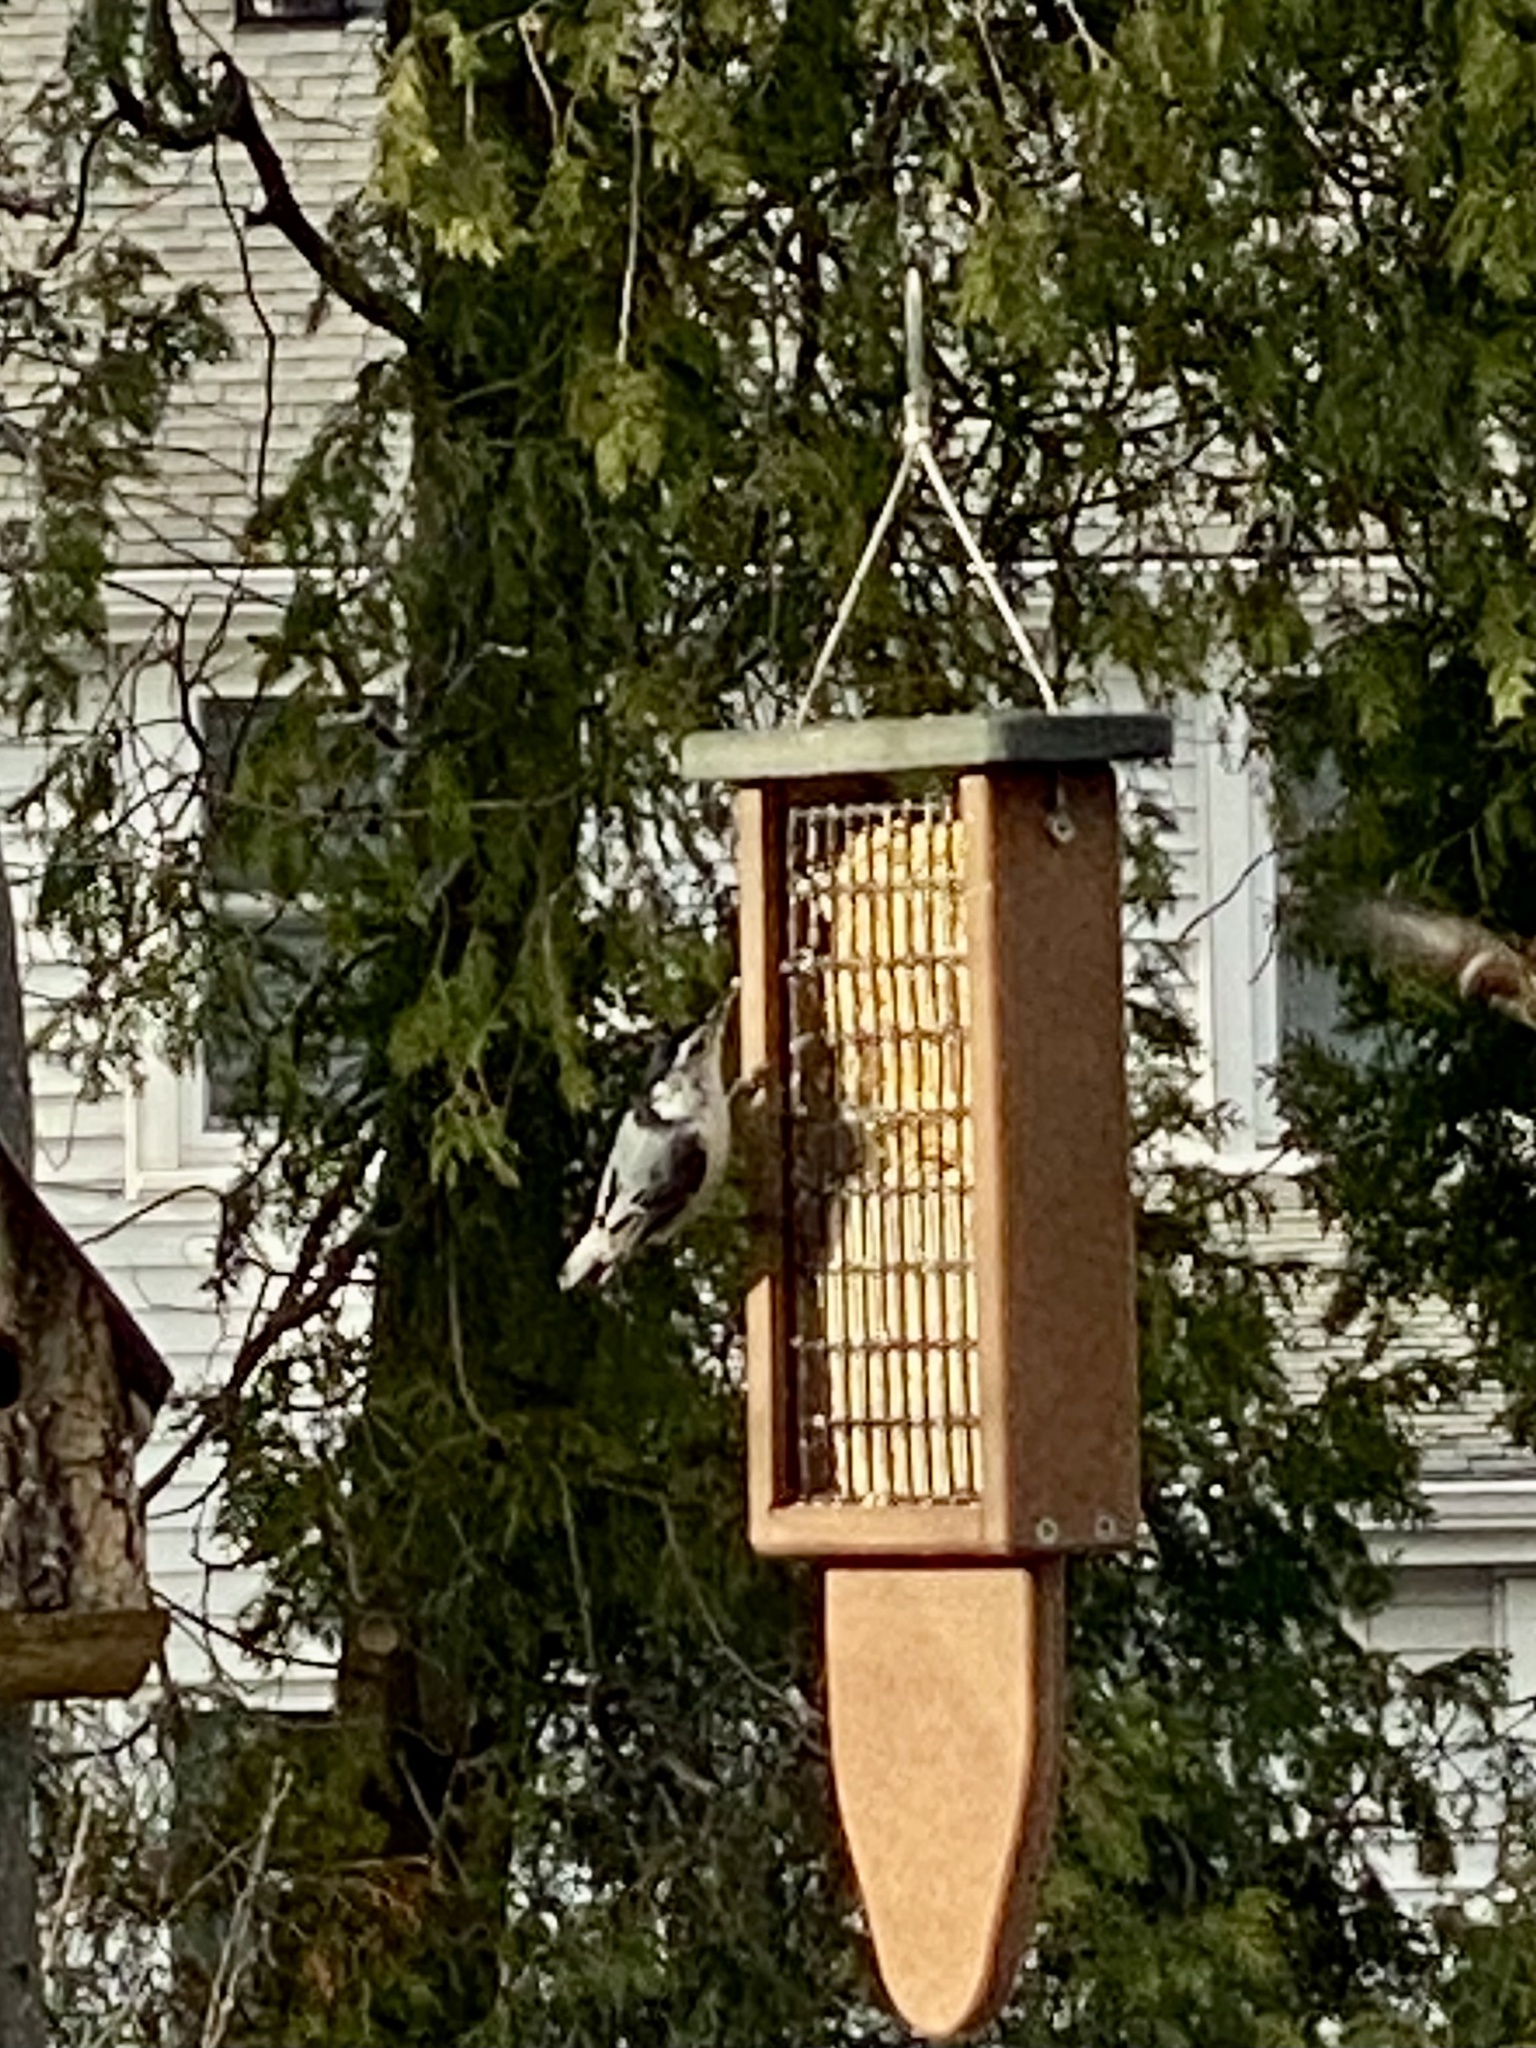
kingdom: Animalia
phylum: Chordata
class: Aves
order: Passeriformes
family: Sittidae
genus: Sitta
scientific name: Sitta carolinensis
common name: White-breasted nuthatch
